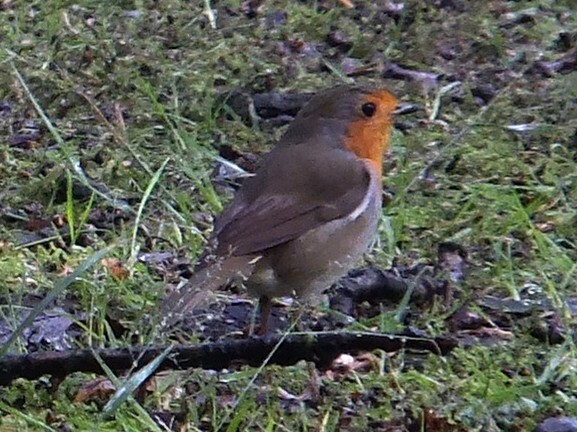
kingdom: Animalia
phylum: Chordata
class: Aves
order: Passeriformes
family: Muscicapidae
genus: Erithacus
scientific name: Erithacus rubecula
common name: European robin
